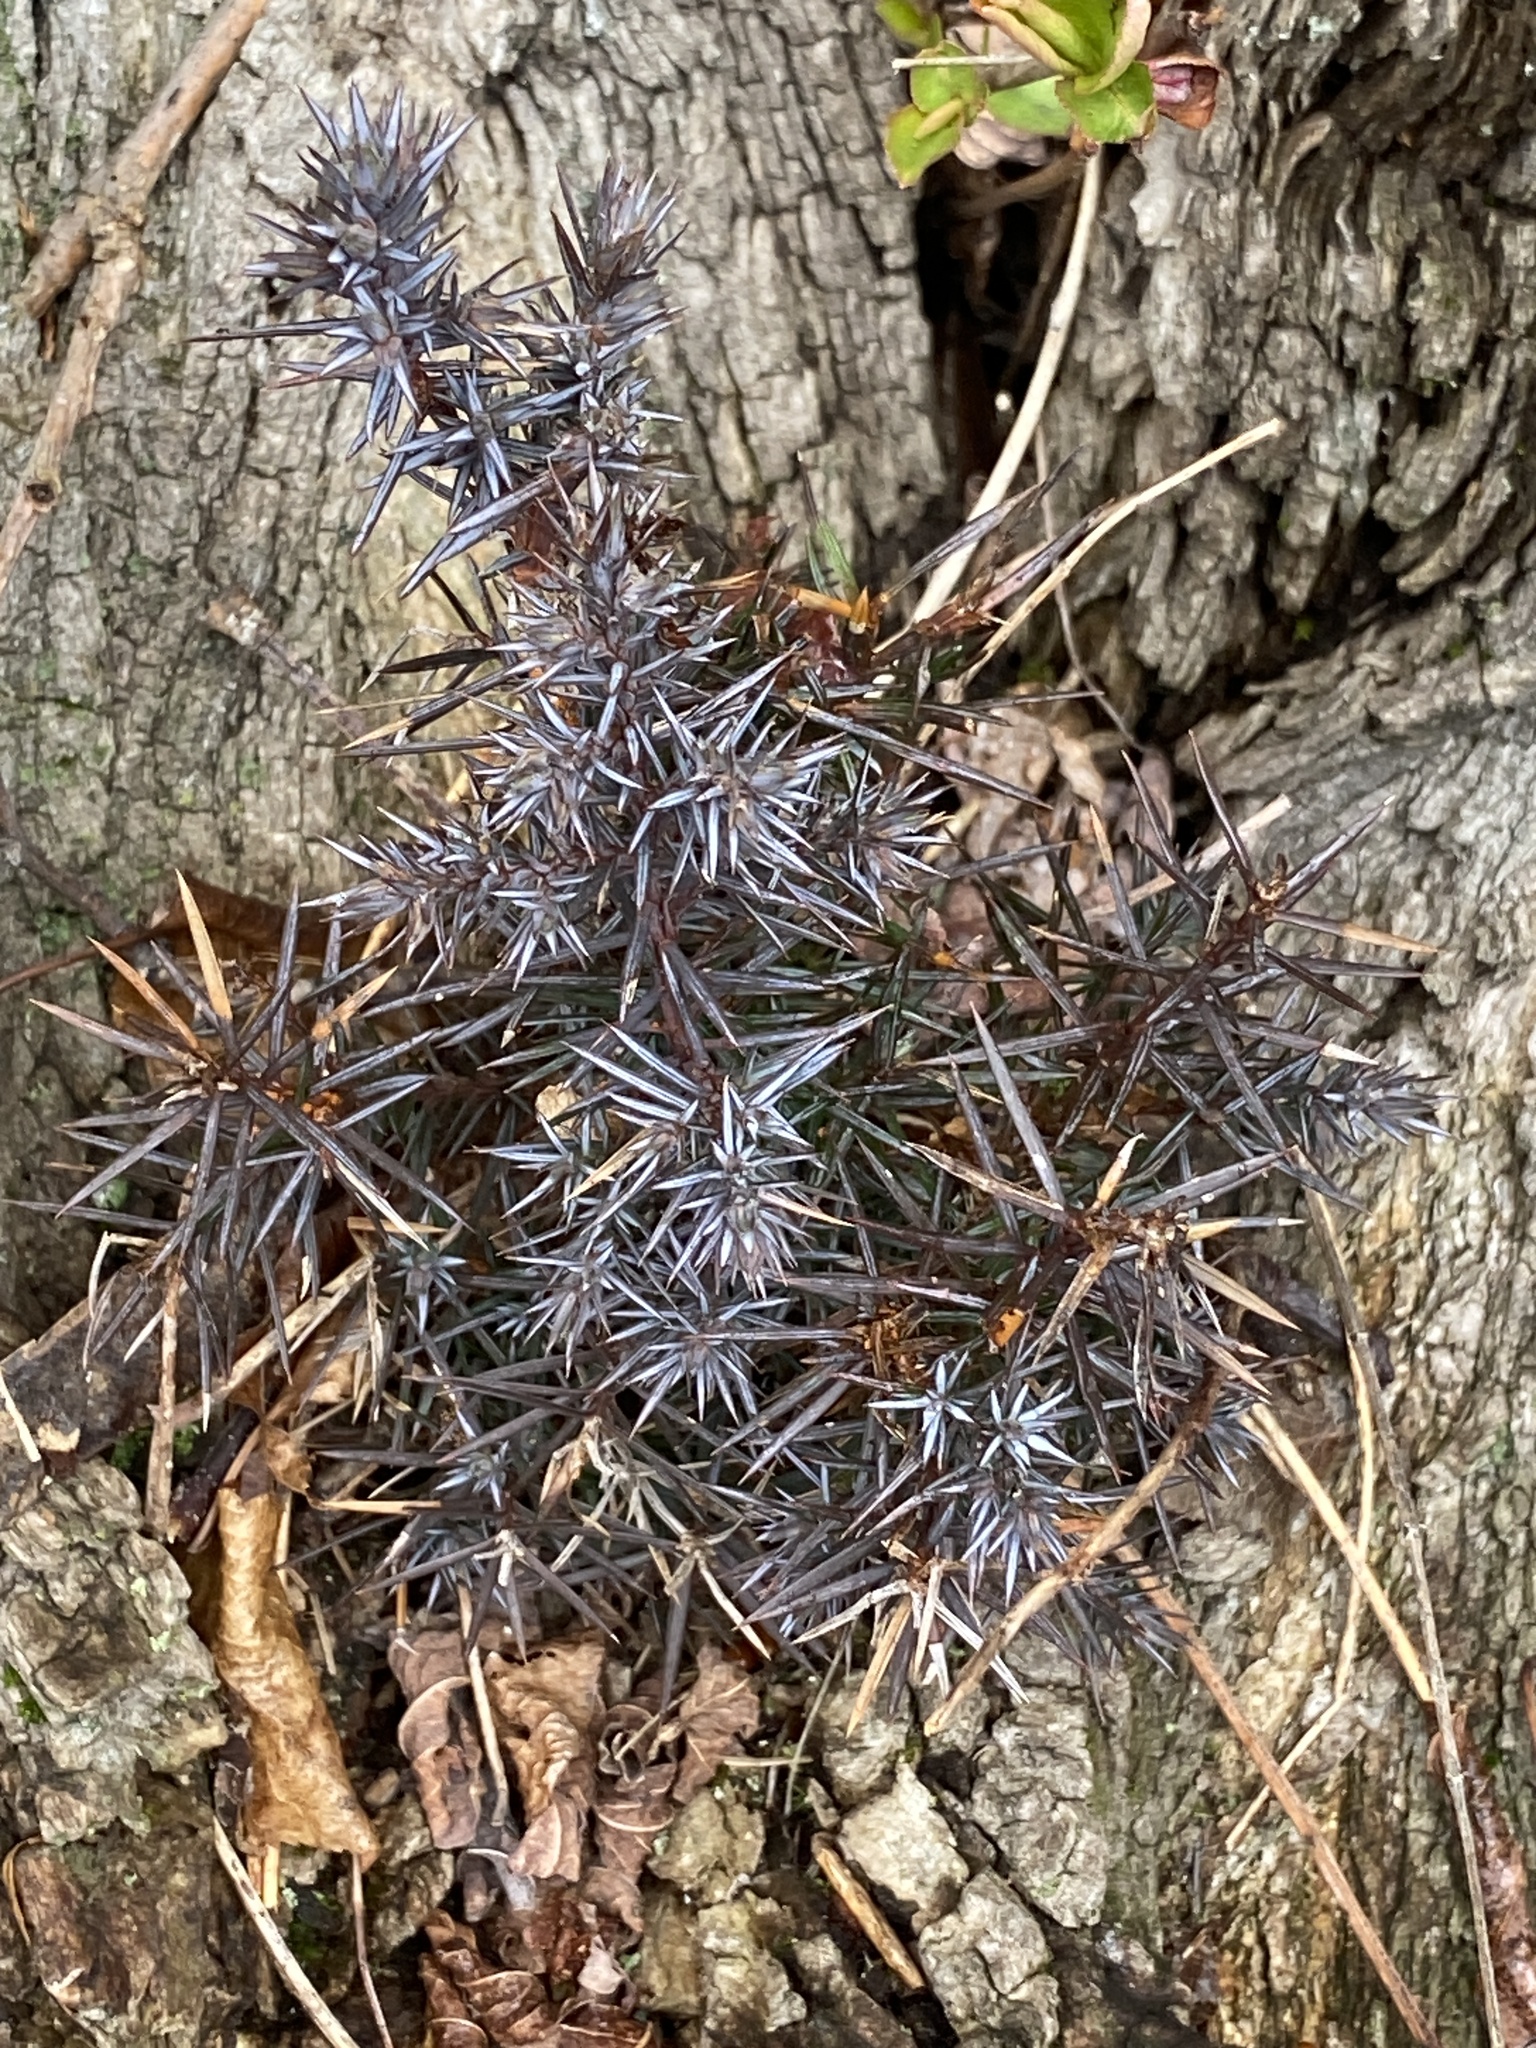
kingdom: Plantae
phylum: Tracheophyta
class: Pinopsida
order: Pinales
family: Cupressaceae
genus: Juniperus
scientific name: Juniperus virginiana
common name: Red juniper
